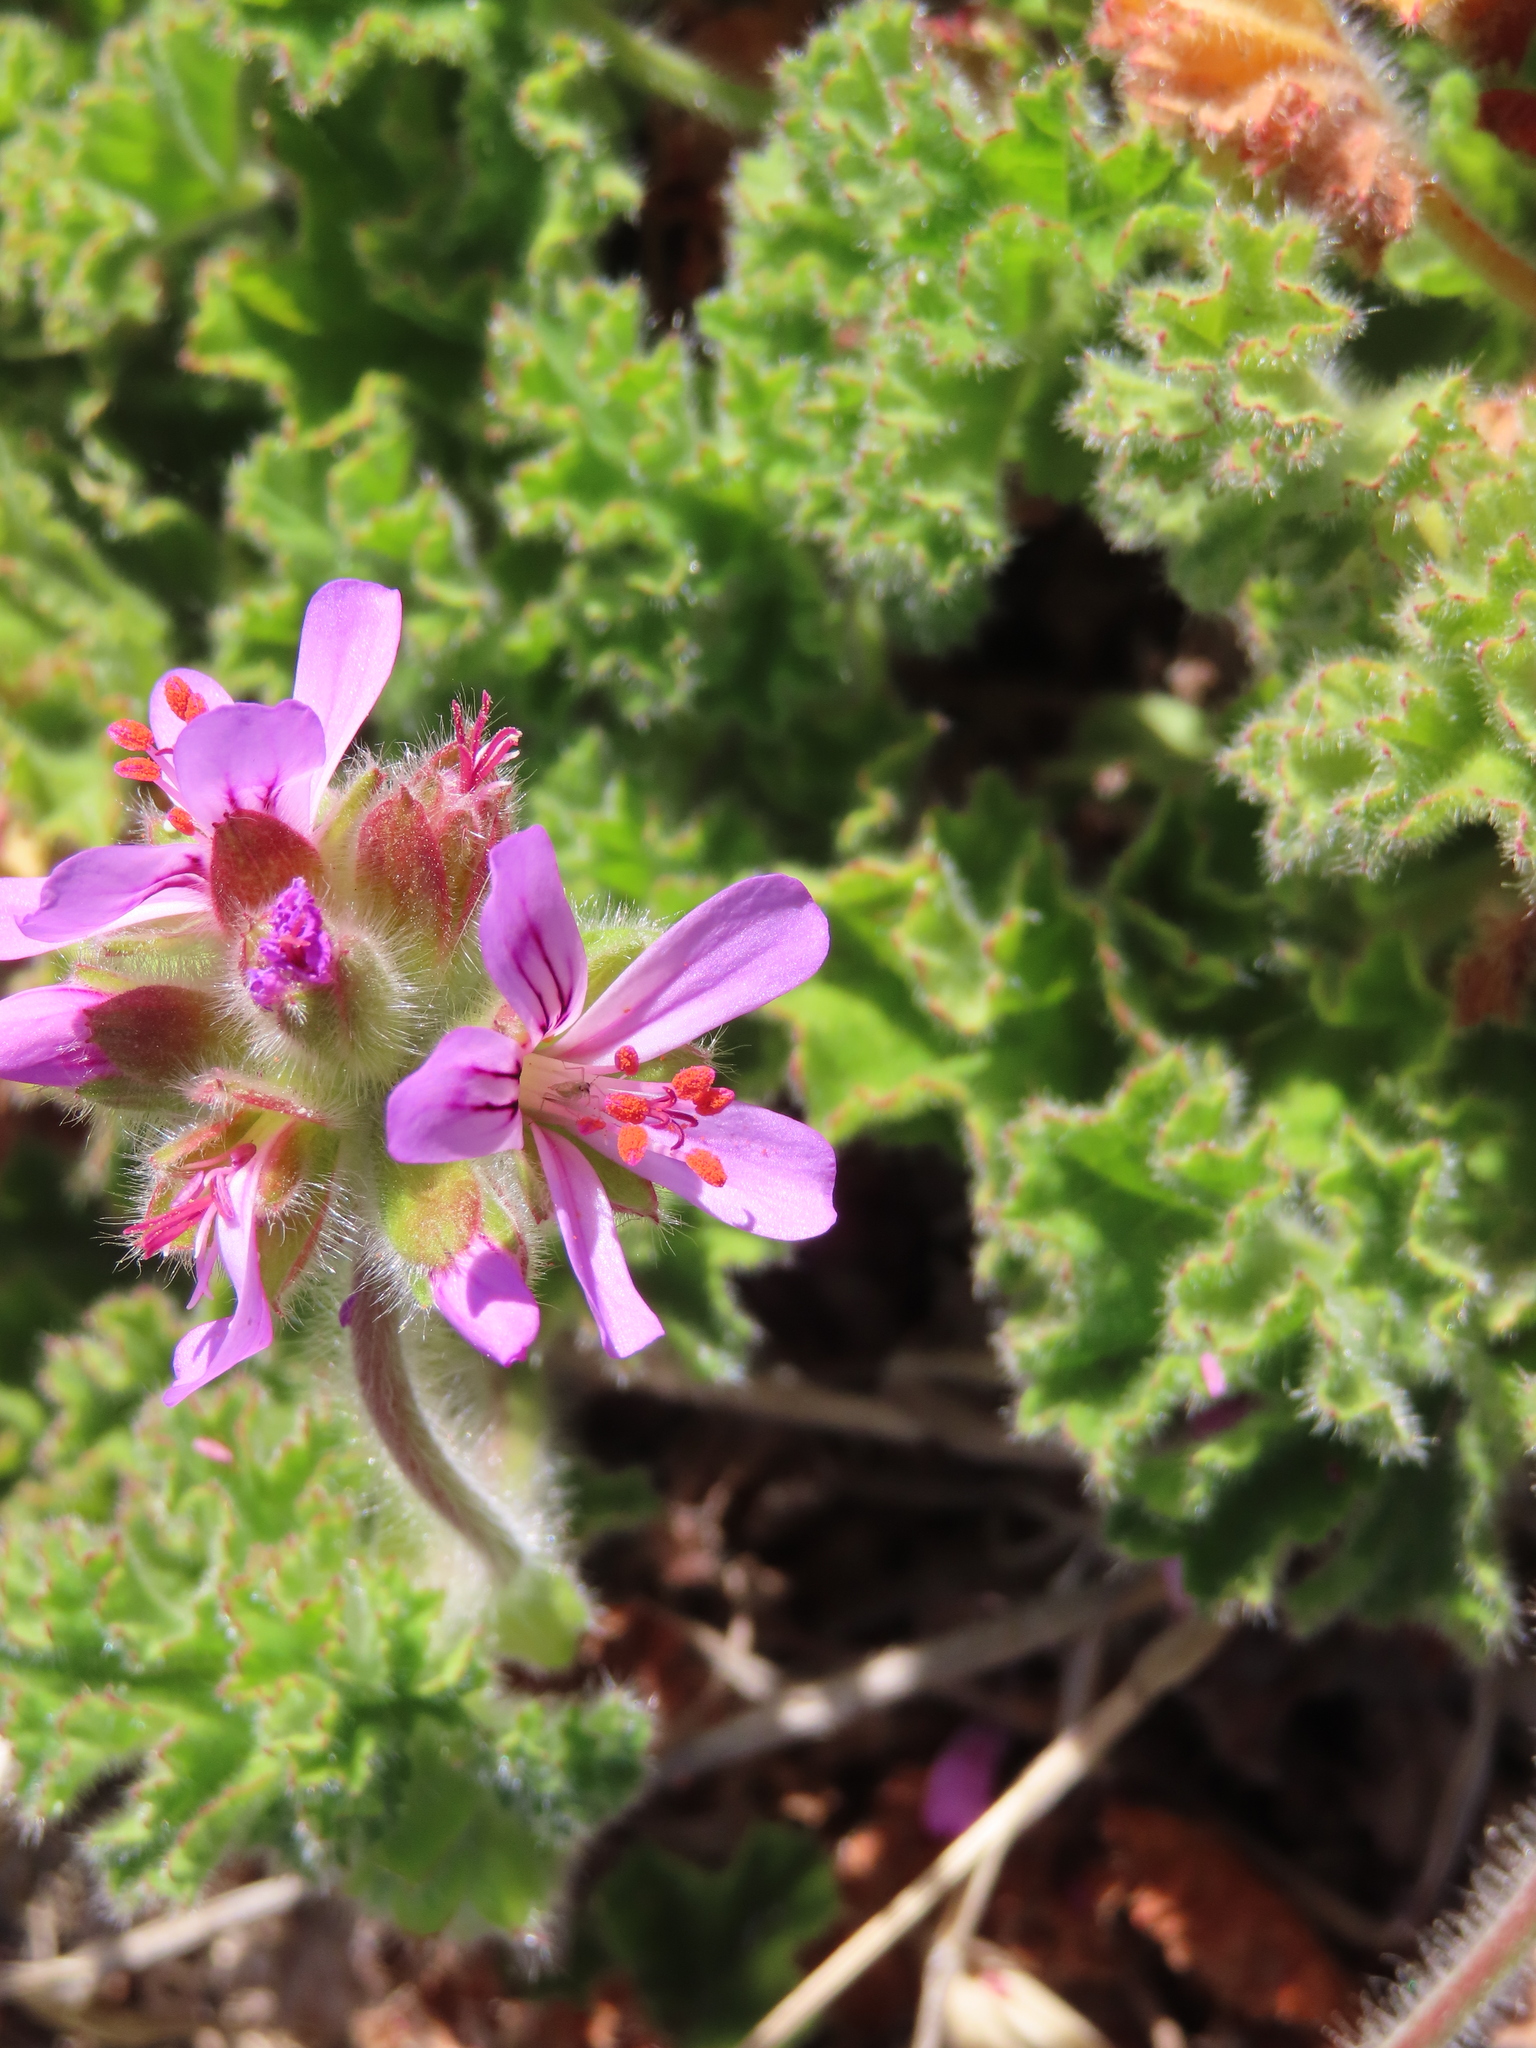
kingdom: Plantae
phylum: Tracheophyta
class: Magnoliopsida
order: Geraniales
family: Geraniaceae
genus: Pelargonium
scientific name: Pelargonium capitatum
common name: Rose scented geranium
